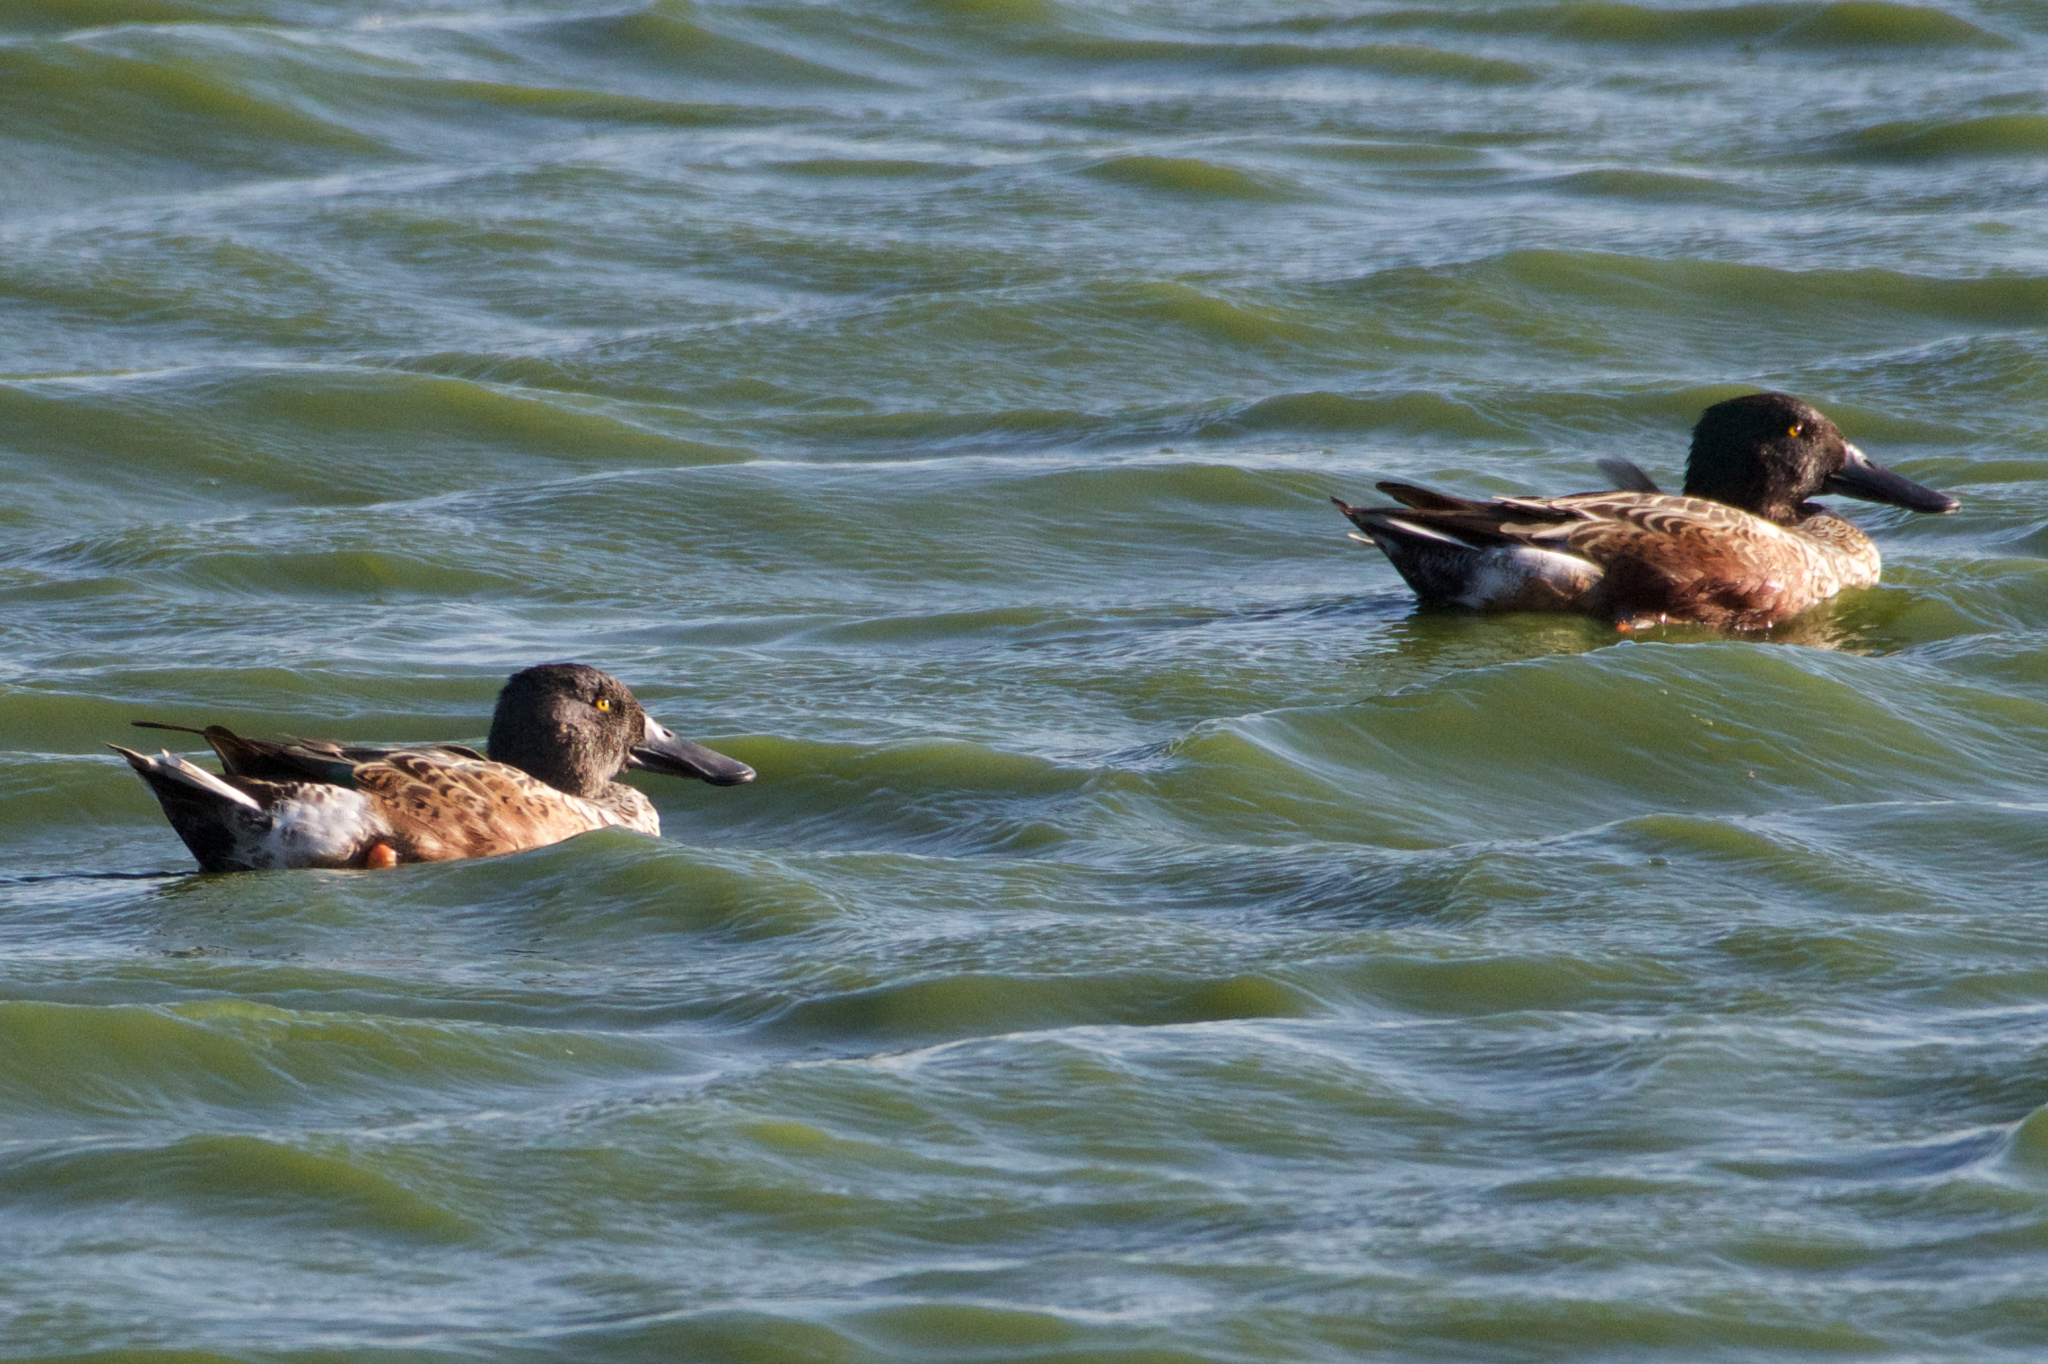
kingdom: Animalia
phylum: Chordata
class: Aves
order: Anseriformes
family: Anatidae
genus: Spatula
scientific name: Spatula clypeata
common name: Northern shoveler
